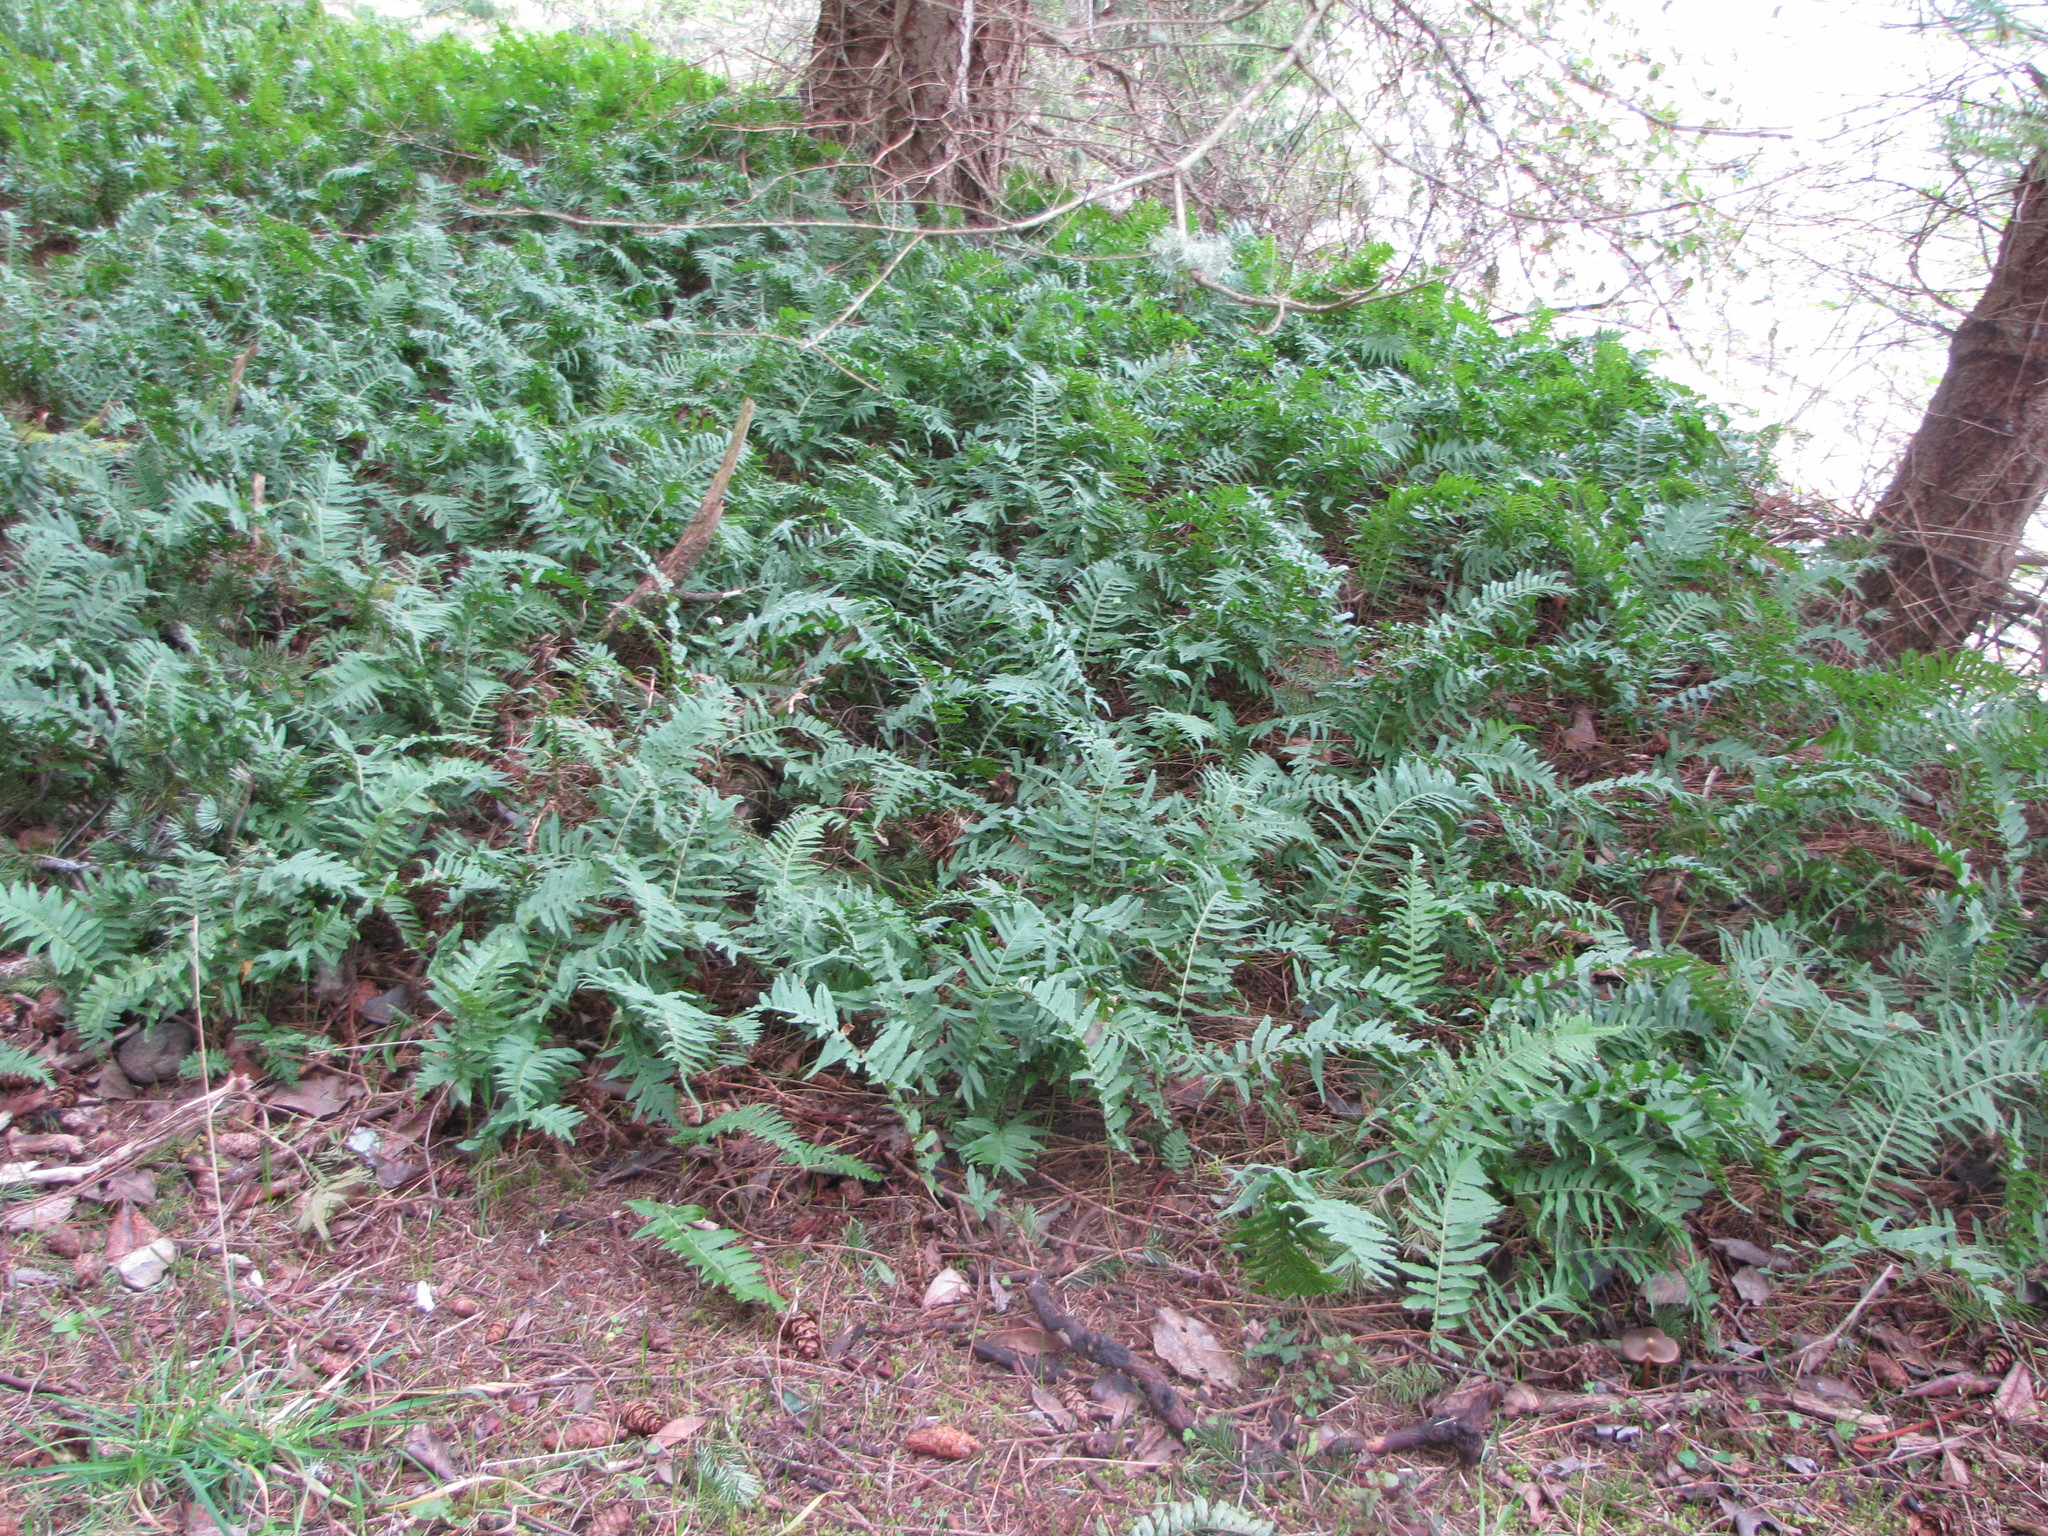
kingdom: Plantae
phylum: Tracheophyta
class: Polypodiopsida
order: Polypodiales
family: Polypodiaceae
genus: Polypodium
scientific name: Polypodium glycyrrhiza
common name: Licorice fern
